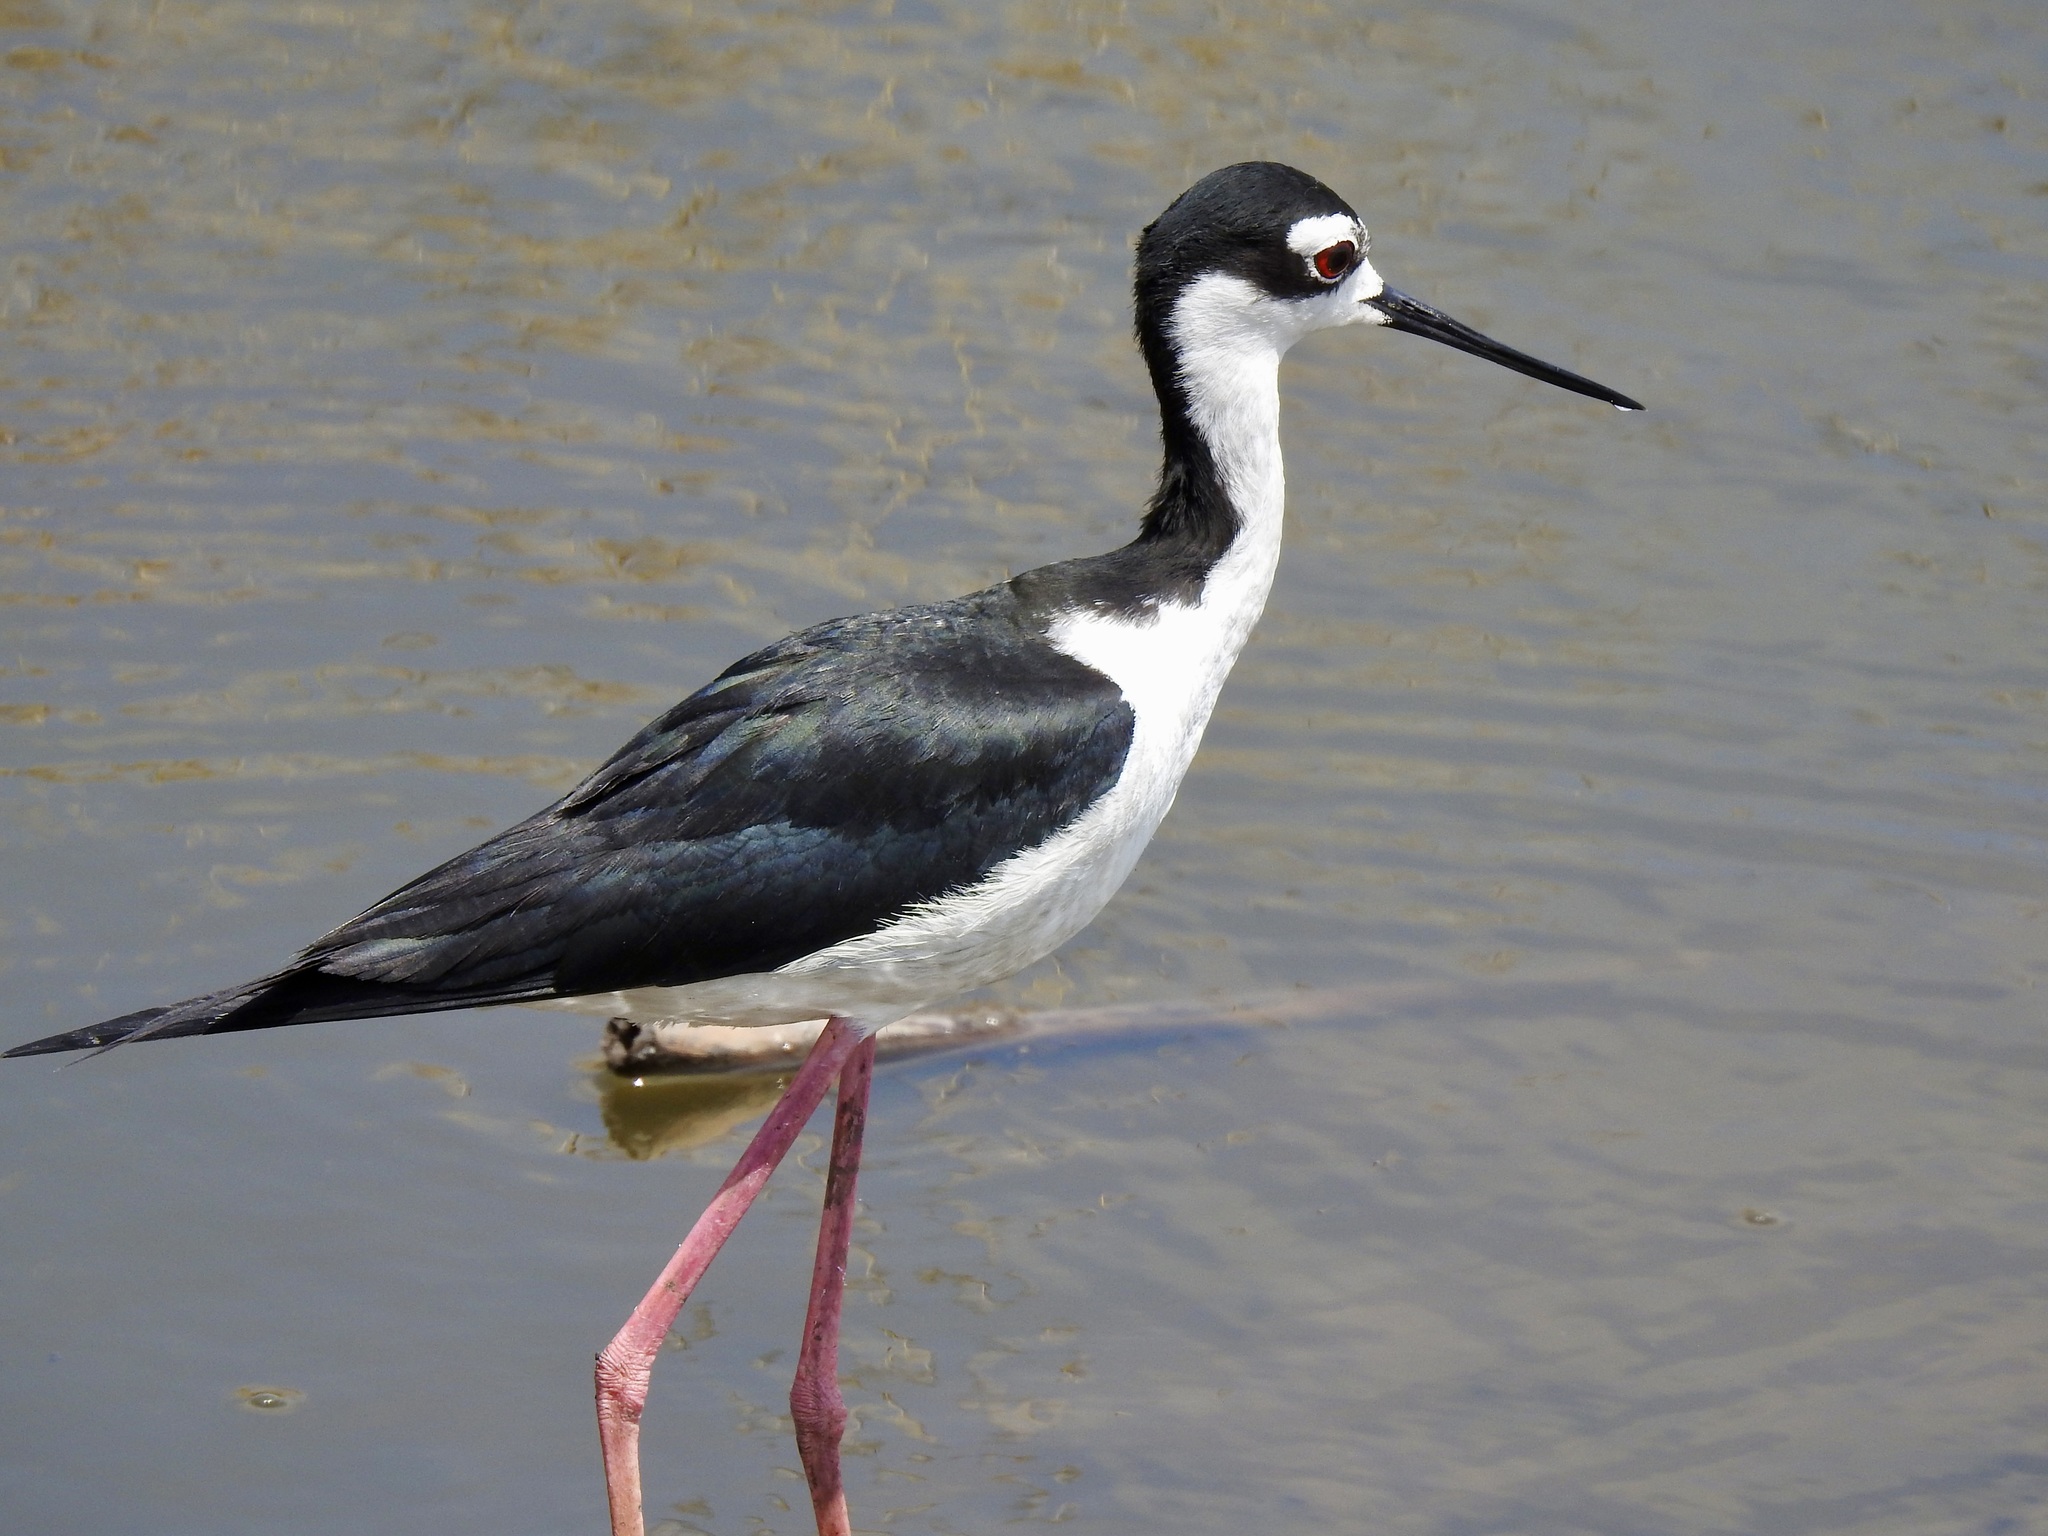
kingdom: Animalia
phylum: Chordata
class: Aves
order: Charadriiformes
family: Recurvirostridae
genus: Himantopus
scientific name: Himantopus mexicanus
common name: Black-necked stilt
